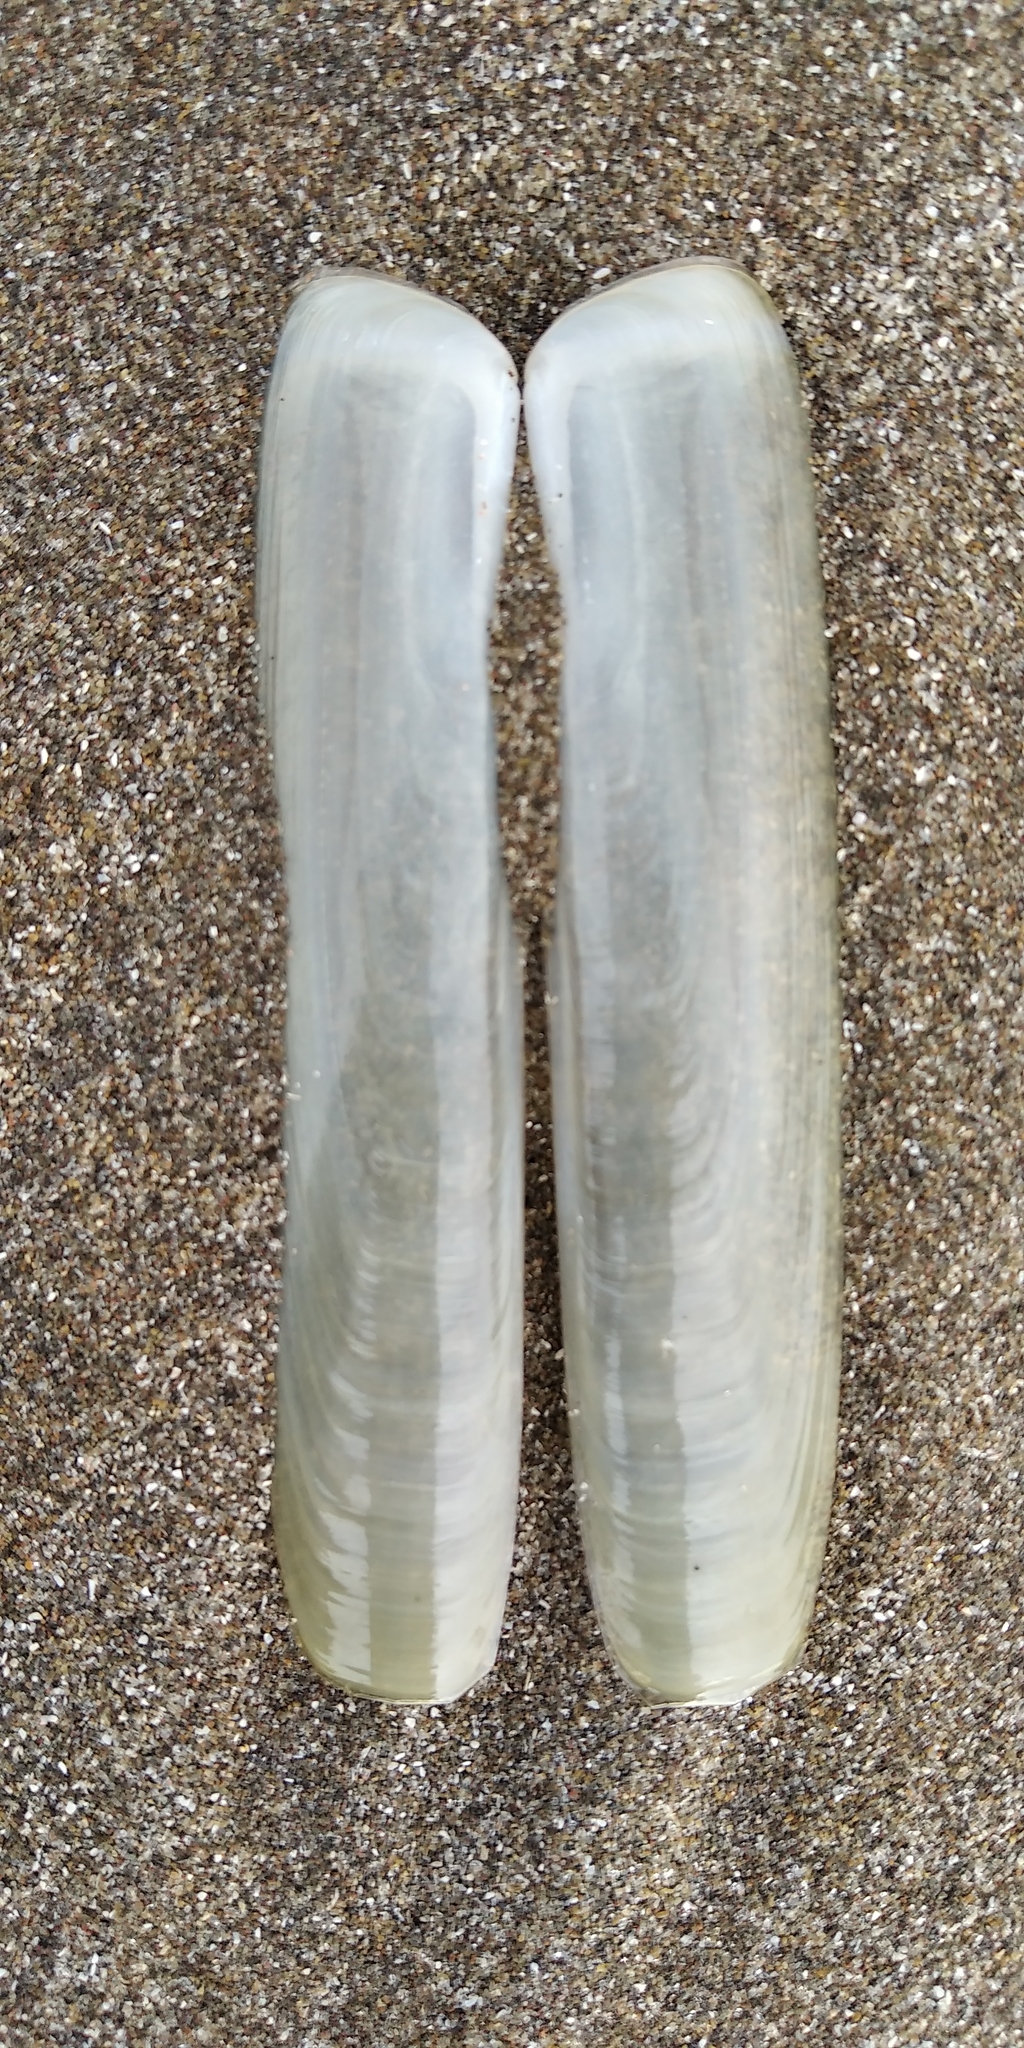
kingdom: Animalia
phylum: Mollusca
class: Bivalvia
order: Adapedonta
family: Solenidae
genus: Solen
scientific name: Solen thuelchus
